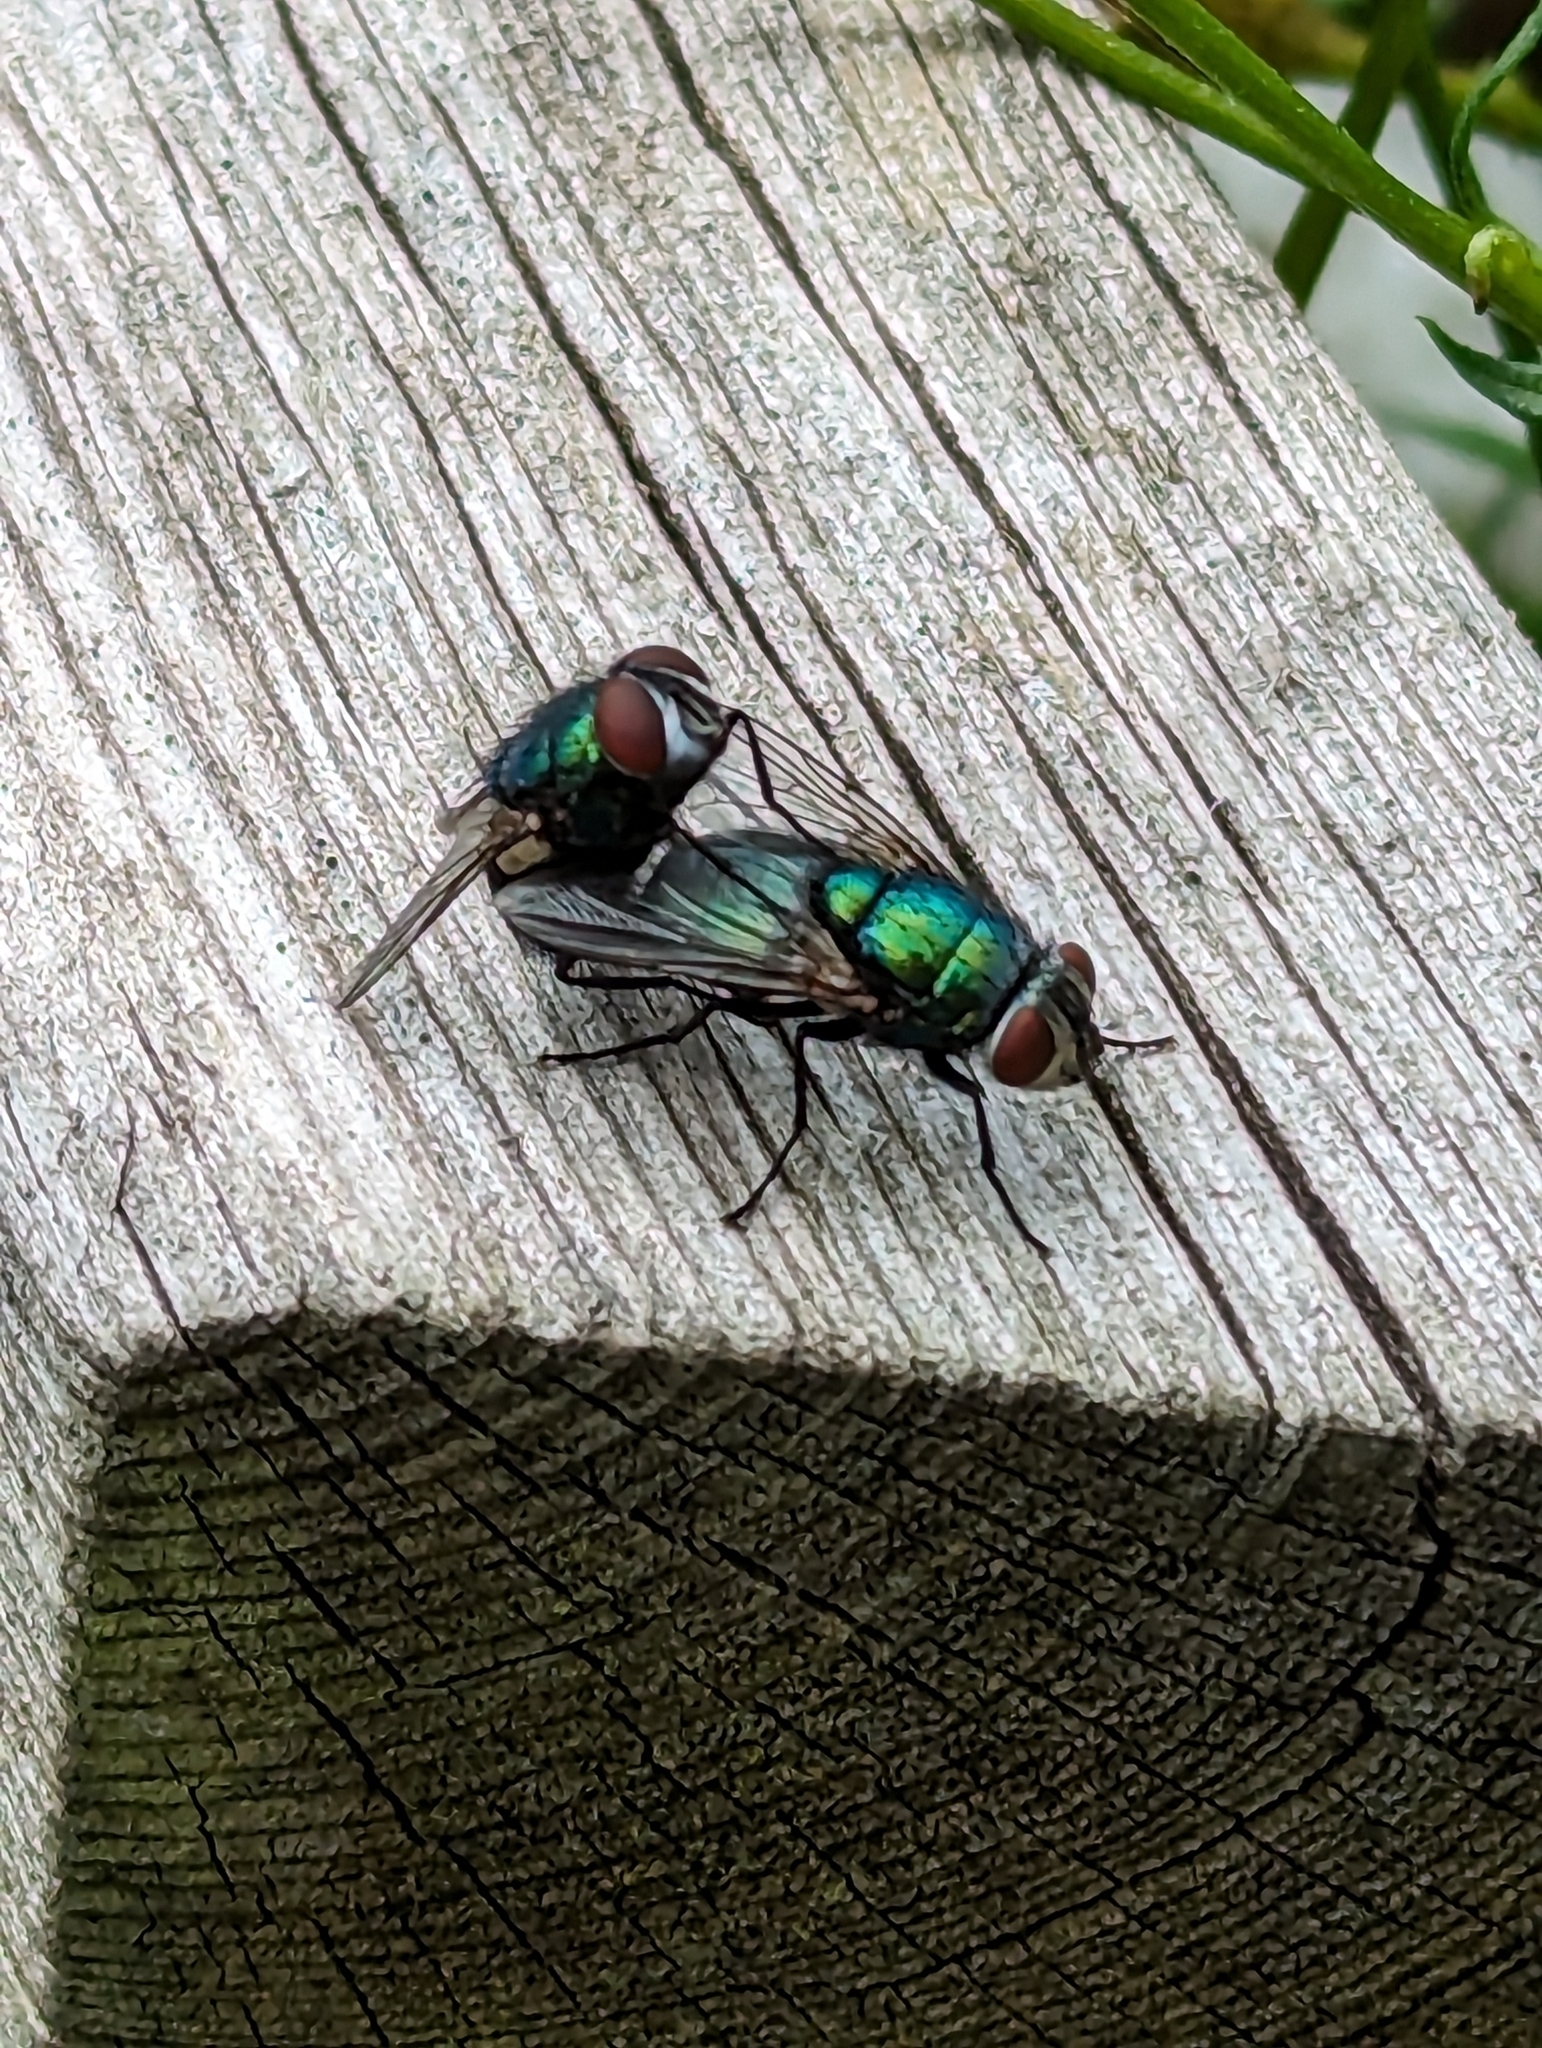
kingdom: Animalia
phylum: Arthropoda
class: Insecta
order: Diptera
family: Calliphoridae
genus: Lucilia
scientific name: Lucilia
